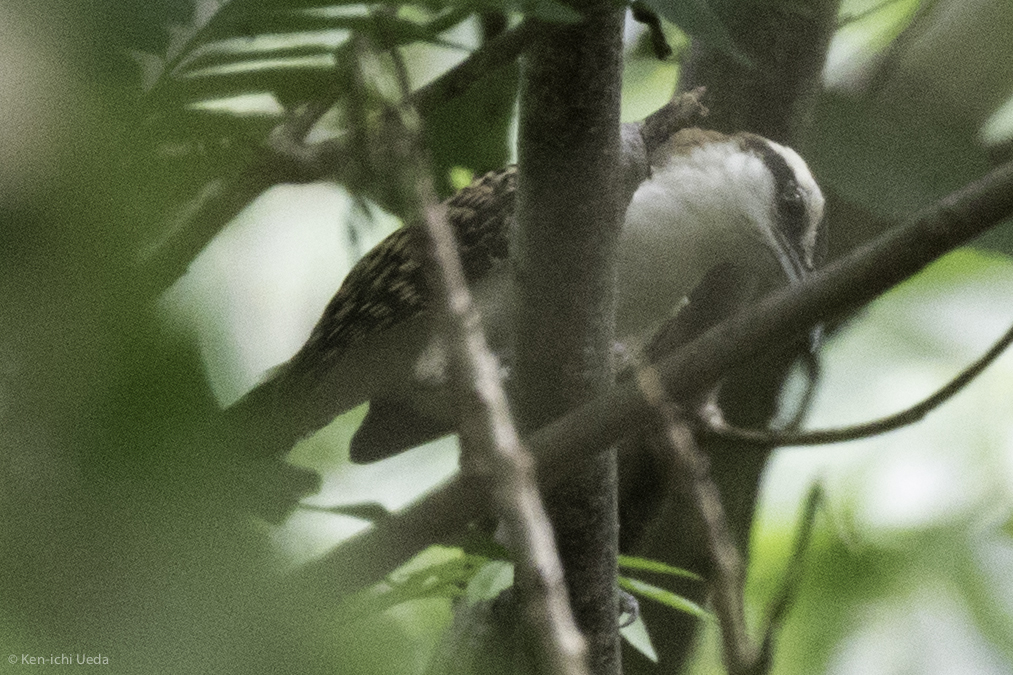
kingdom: Animalia
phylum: Chordata
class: Aves
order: Passeriformes
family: Troglodytidae
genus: Campylorhynchus
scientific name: Campylorhynchus rufinucha
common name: Rufous-naped wren
